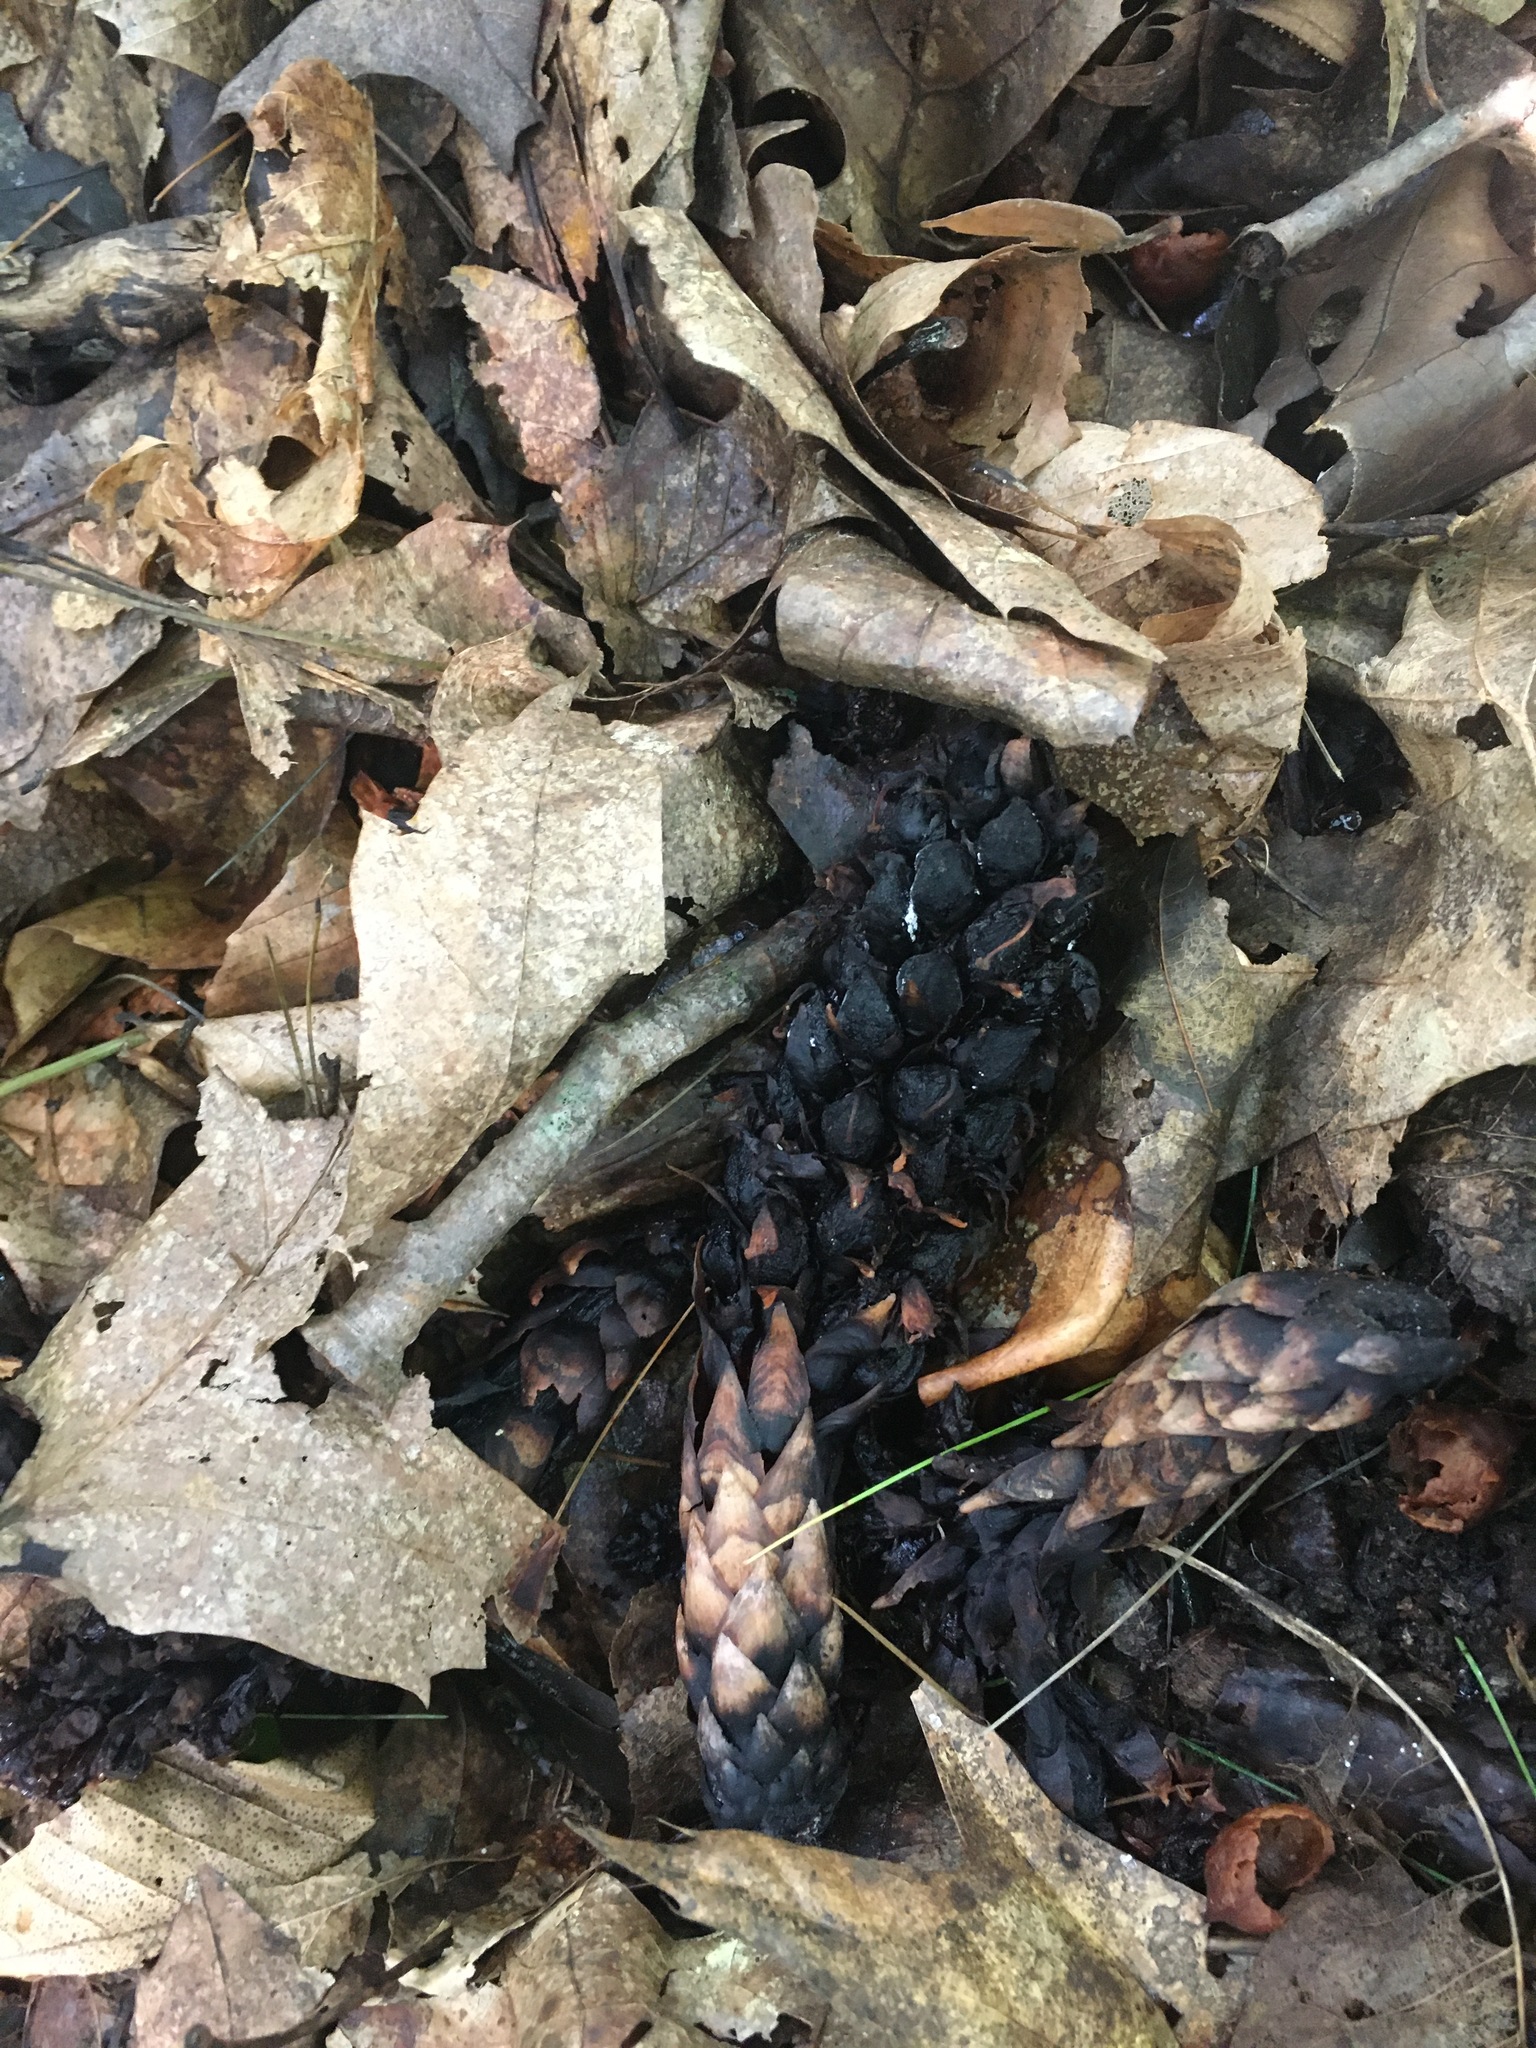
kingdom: Plantae
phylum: Tracheophyta
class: Magnoliopsida
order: Lamiales
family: Orobanchaceae
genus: Conopholis
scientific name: Conopholis americana
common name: American cancer-root
